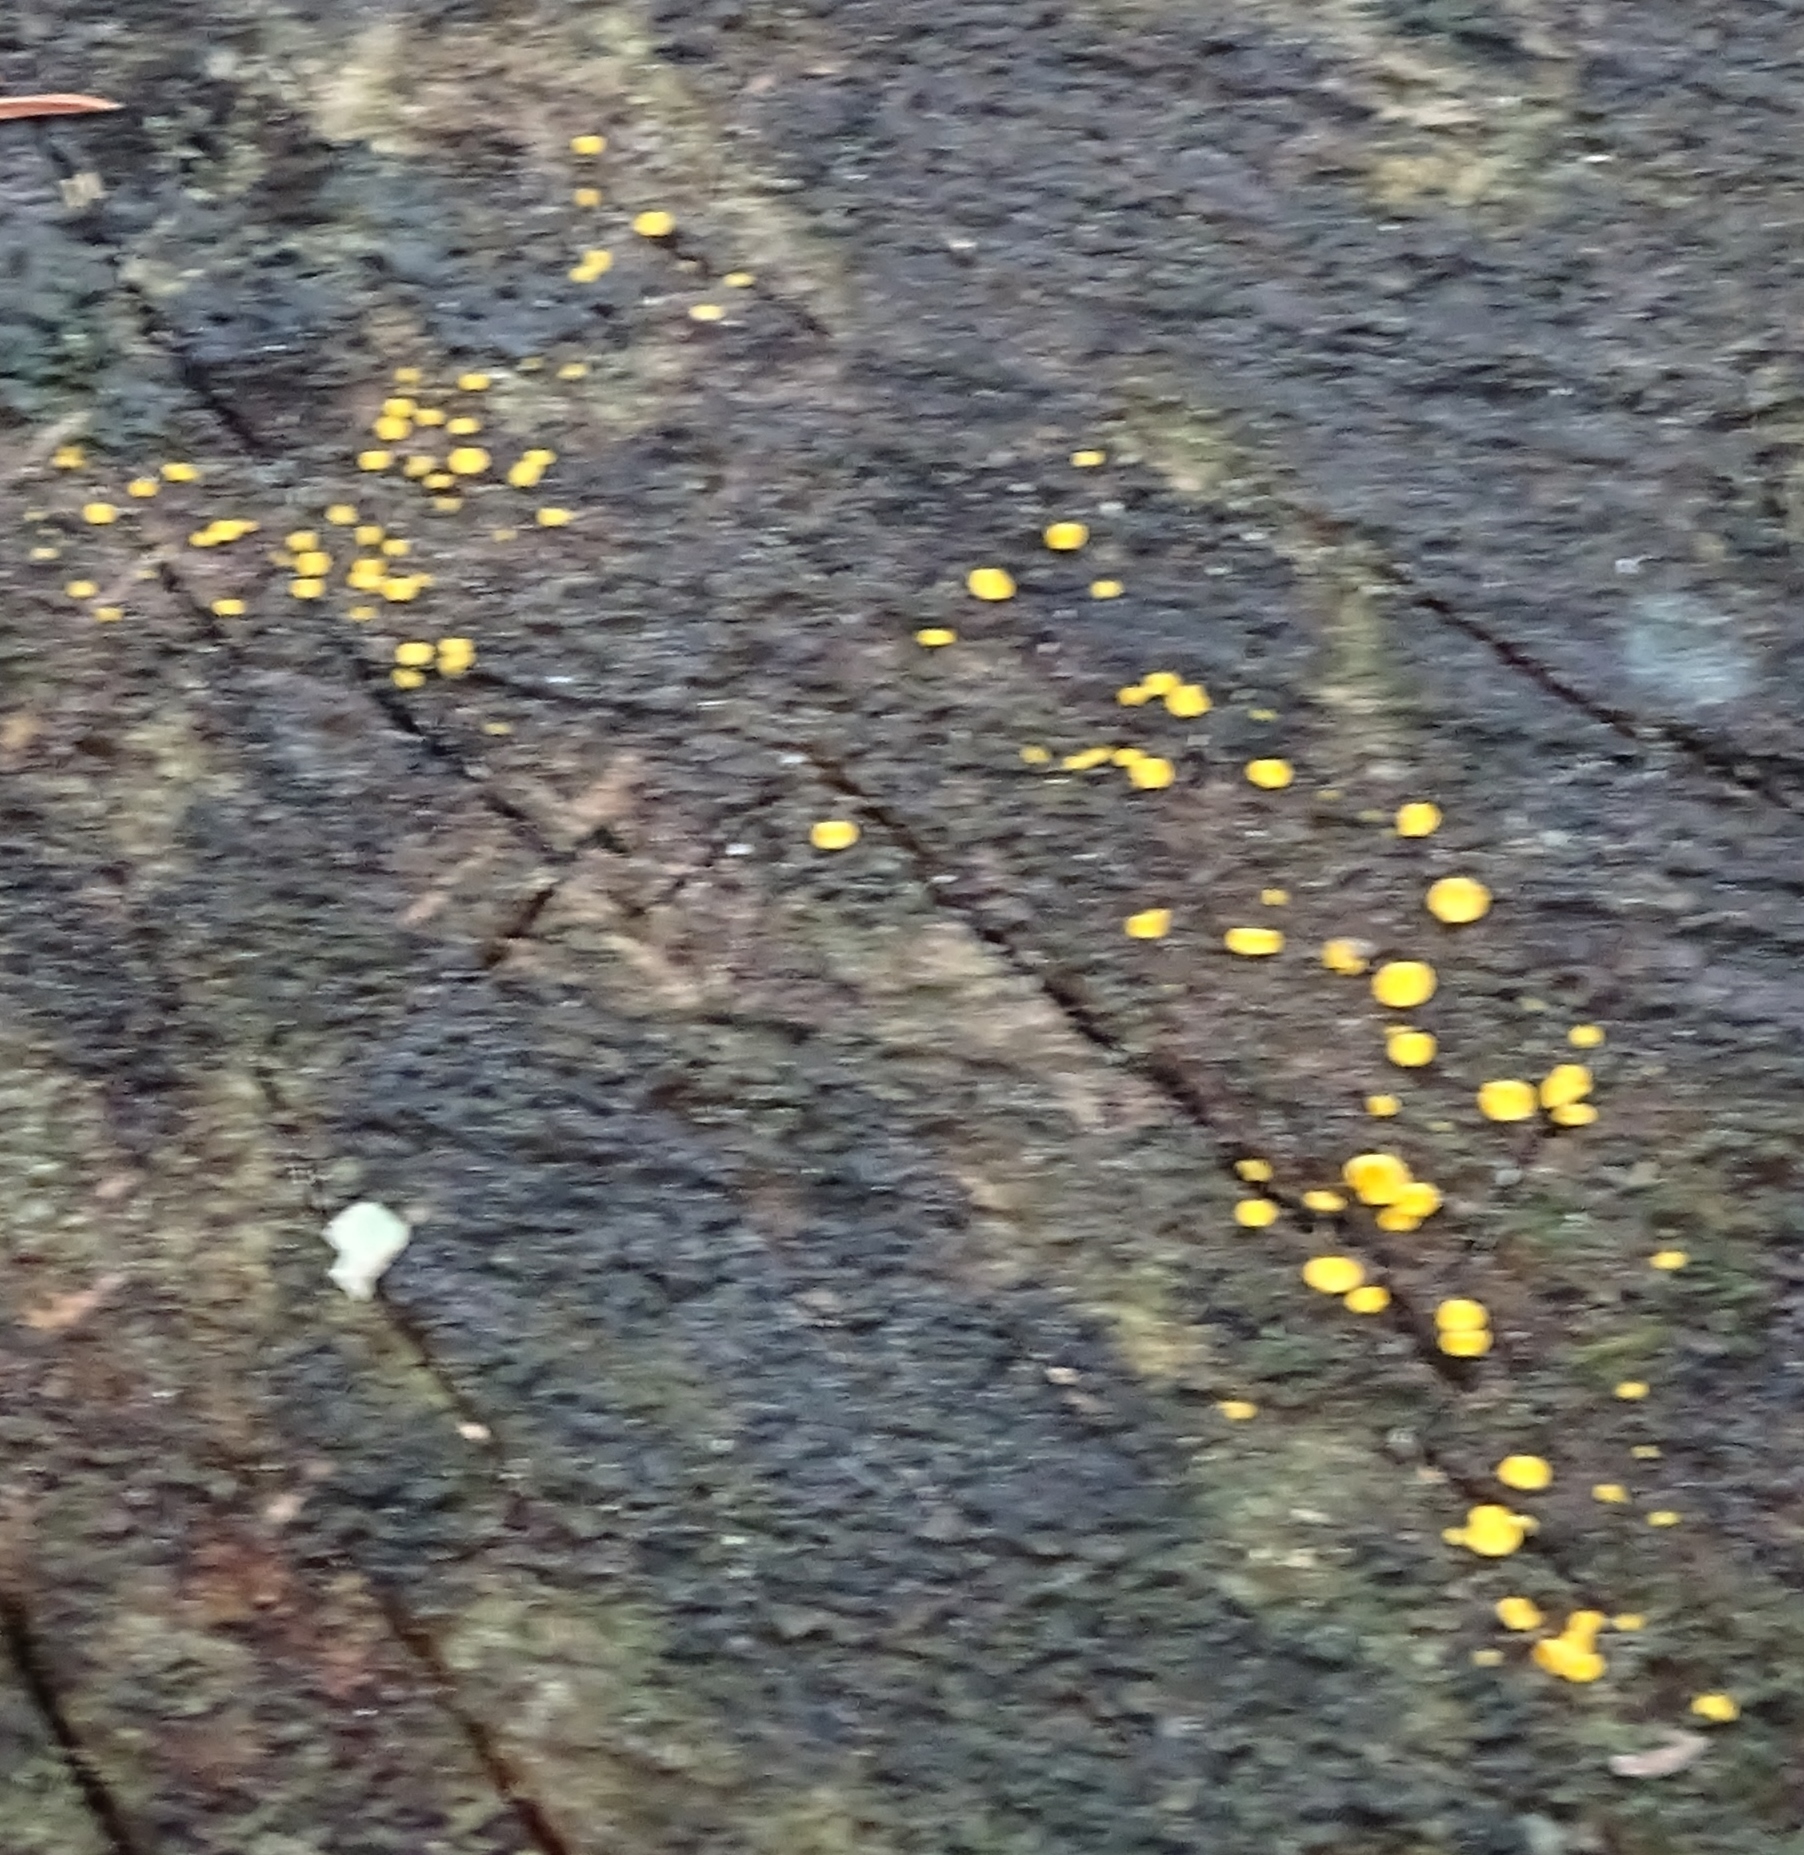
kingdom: Fungi
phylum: Ascomycota
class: Leotiomycetes
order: Helotiales
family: Pezizellaceae
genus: Calycina
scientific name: Calycina citrina
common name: Yellow fairy cups
